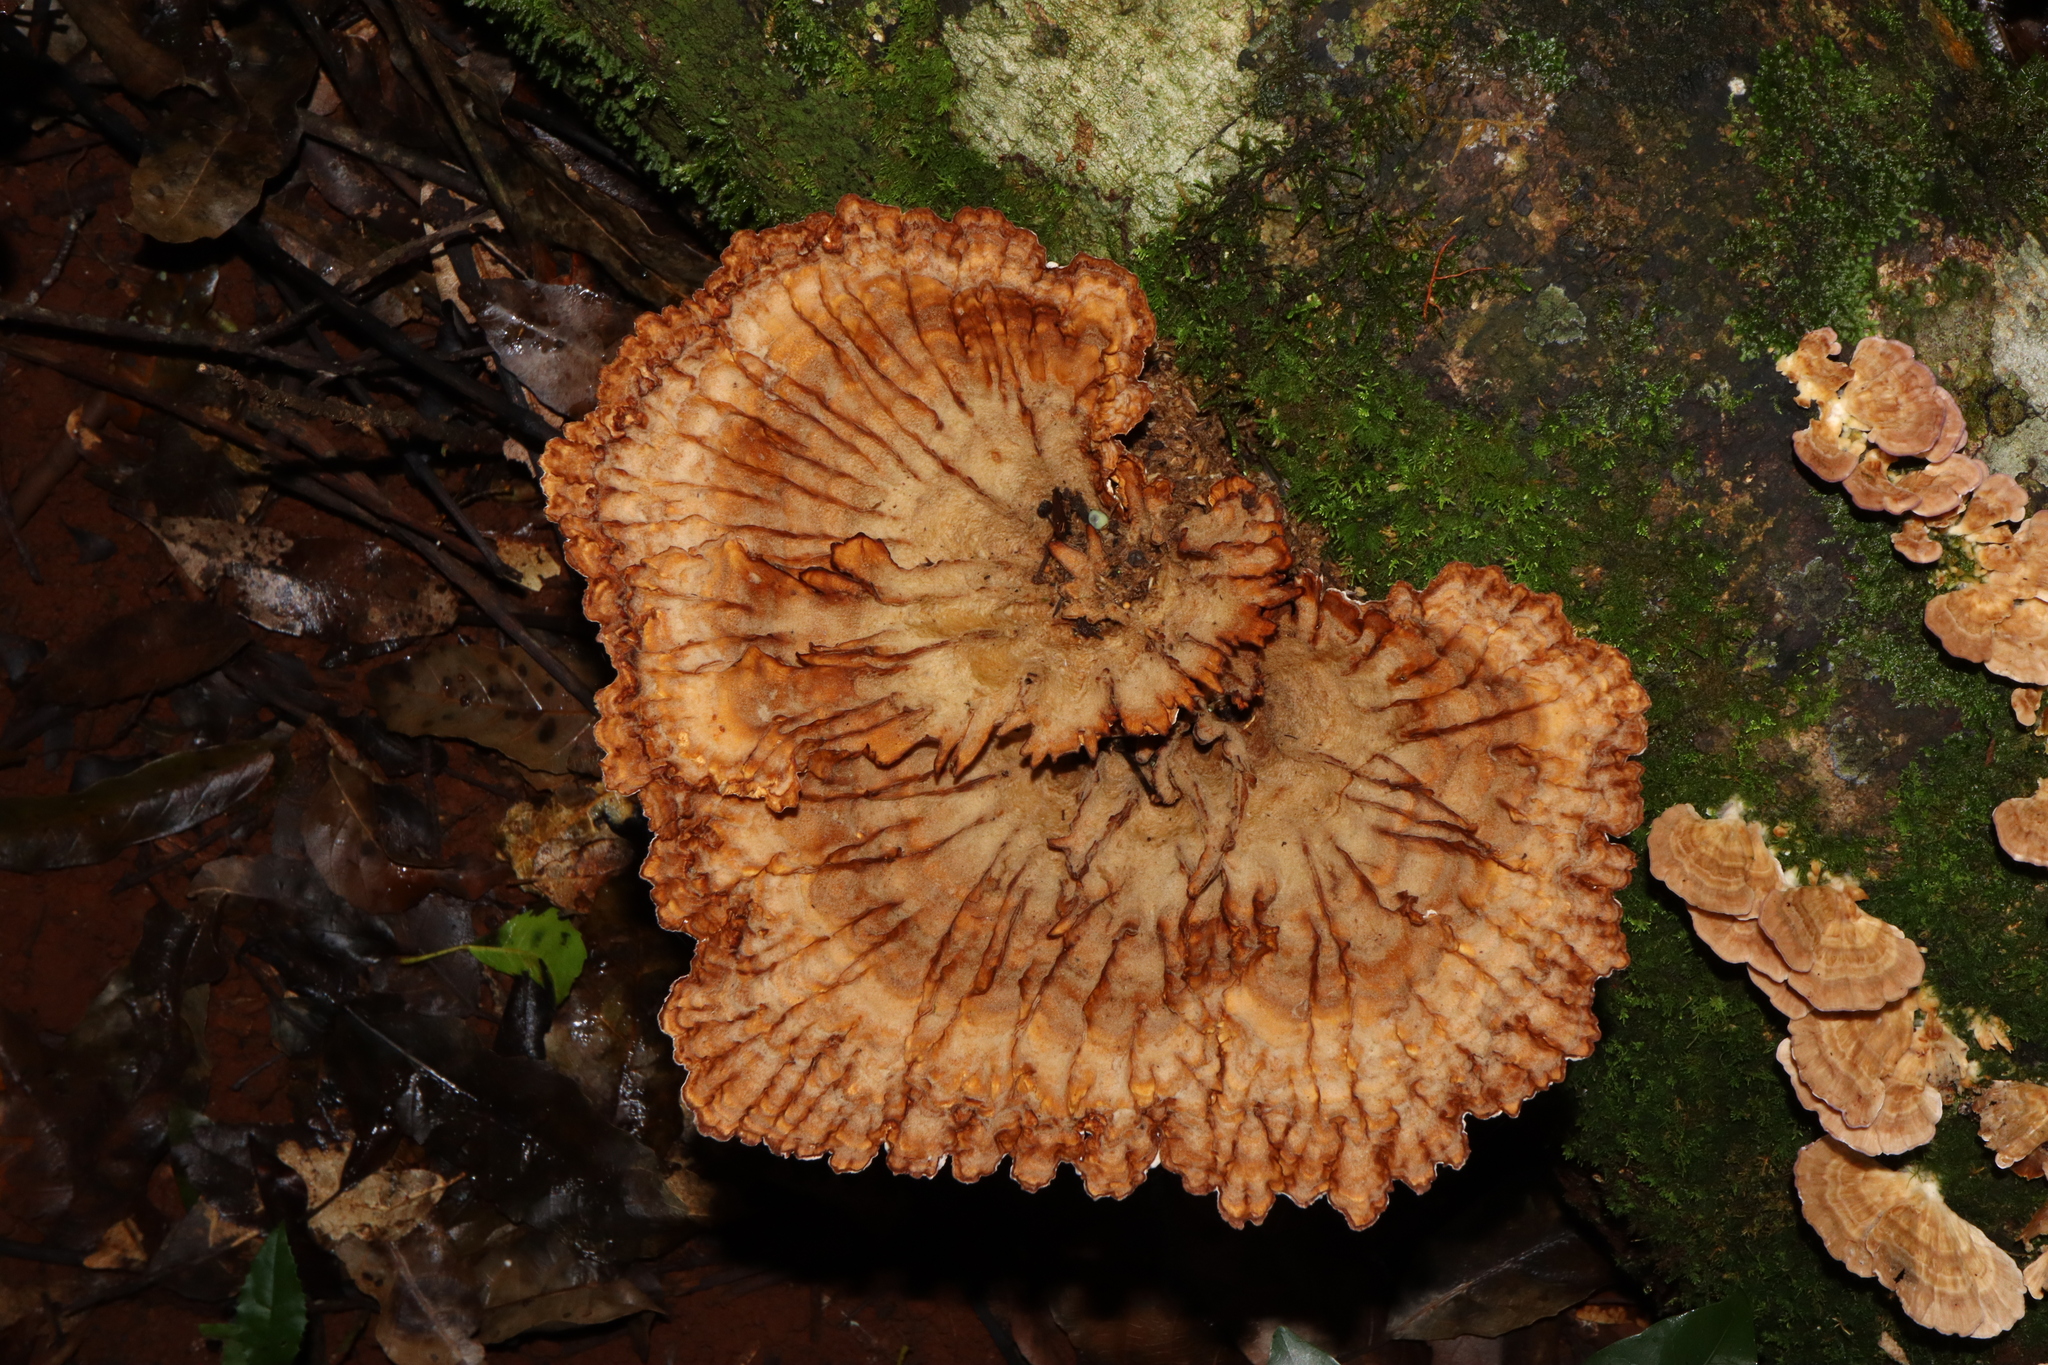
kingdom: Fungi
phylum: Basidiomycota
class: Agaricomycetes
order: Polyporales
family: Panaceae
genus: Cymatoderma
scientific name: Cymatoderma elegans
